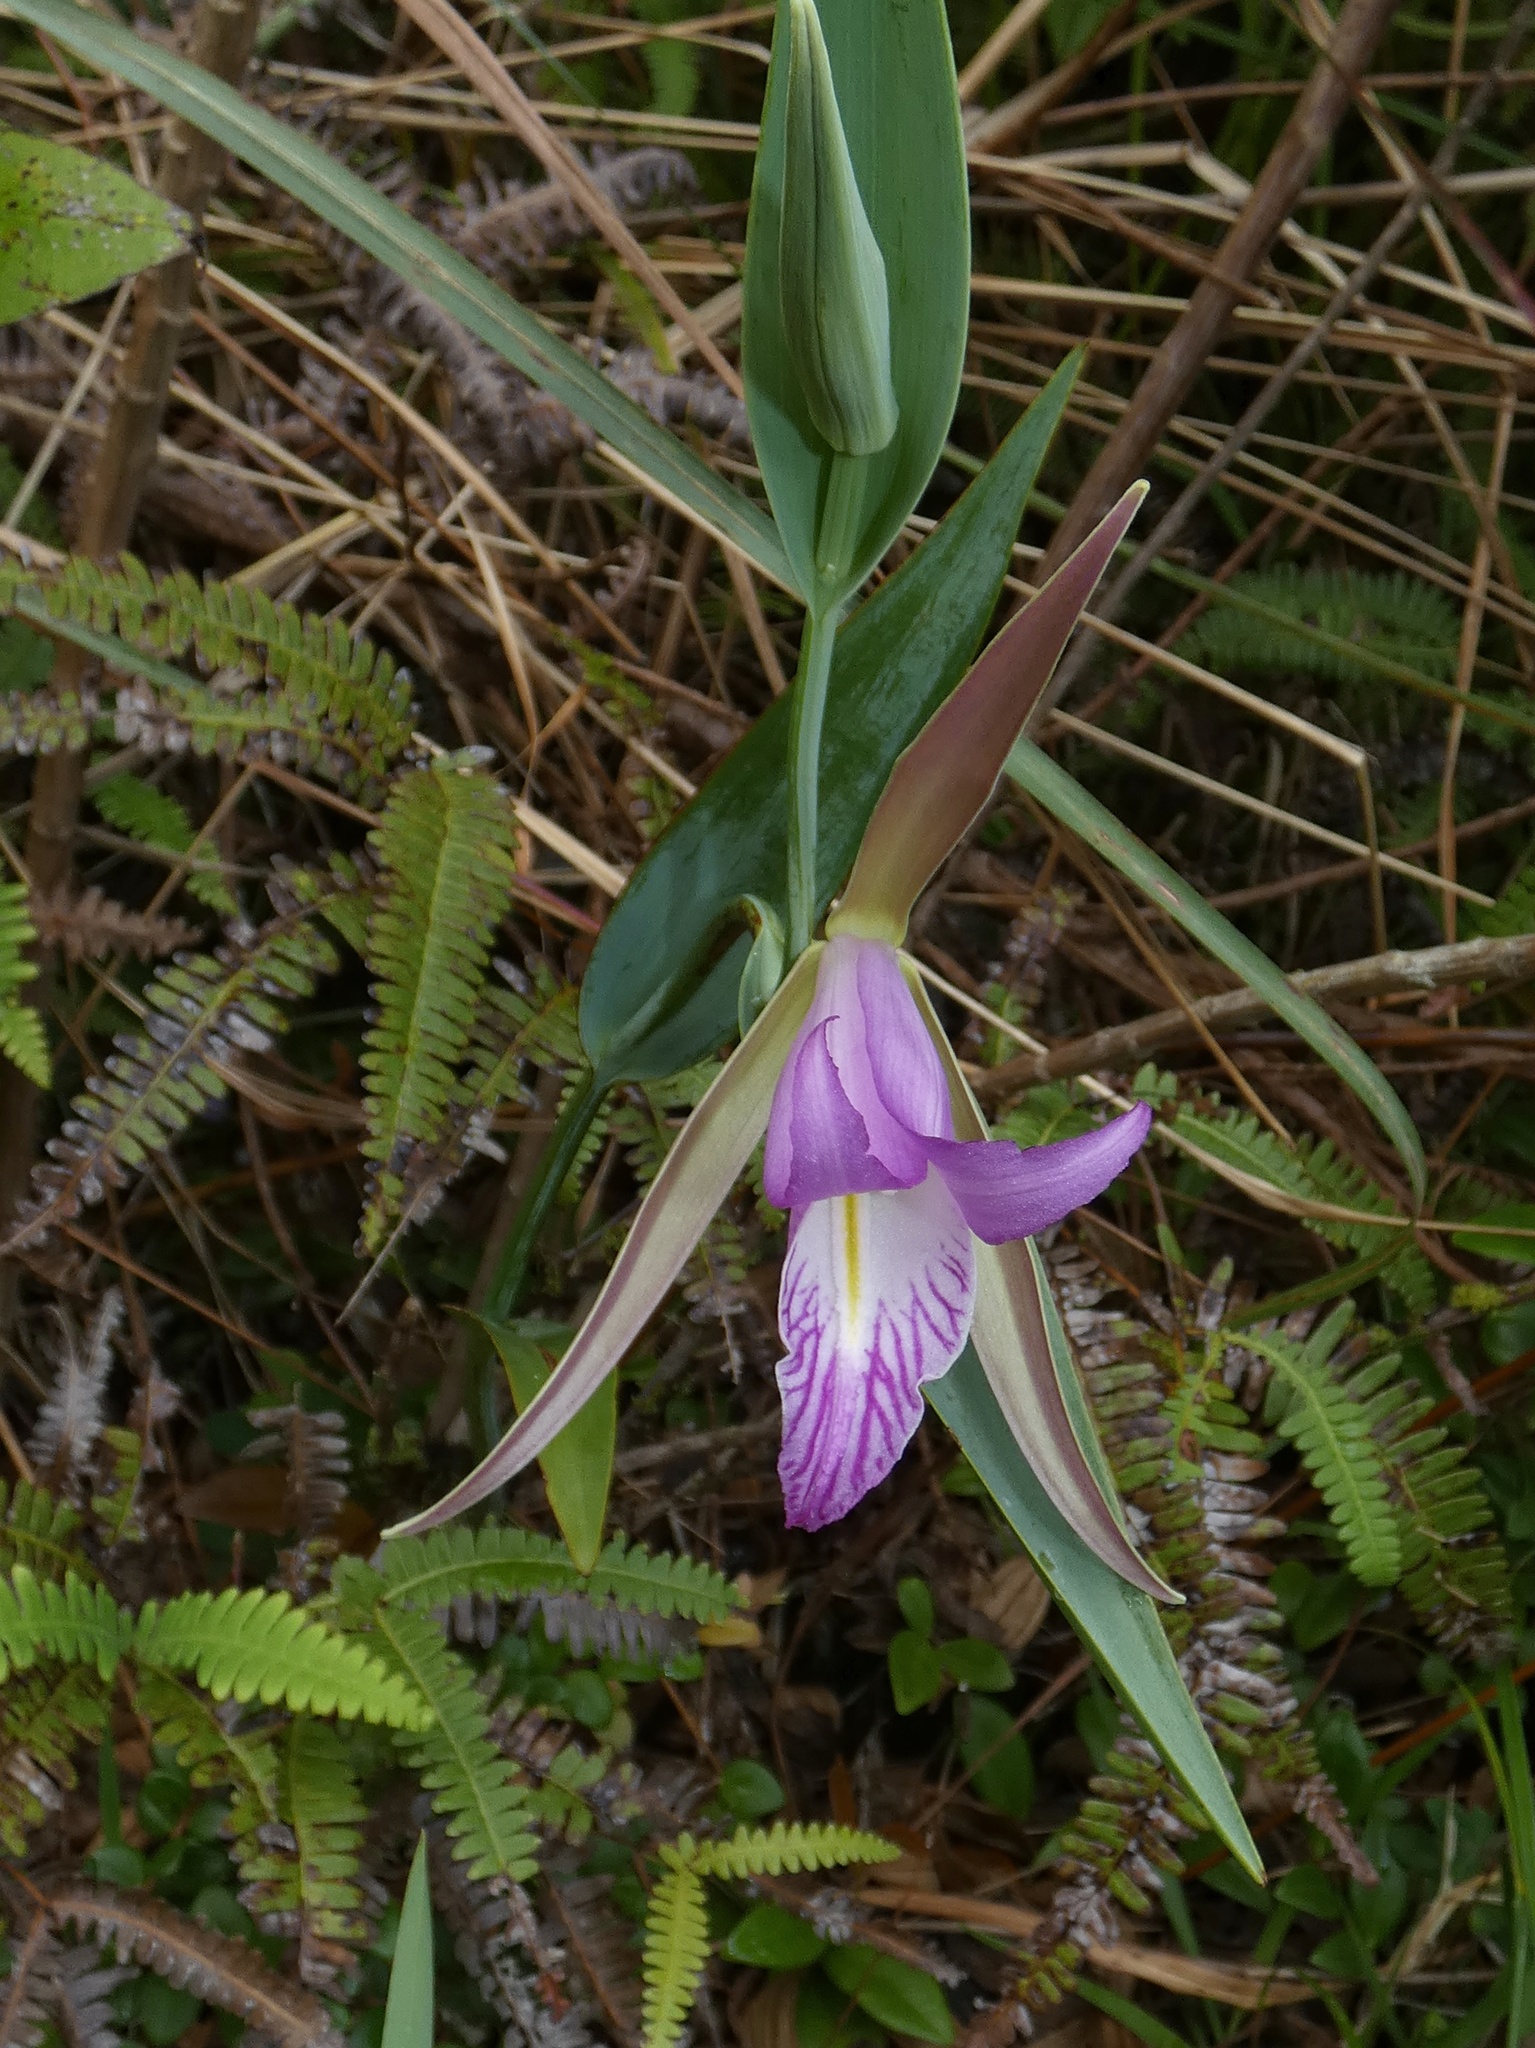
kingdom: Plantae
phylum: Tracheophyta
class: Liliopsida
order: Asparagales
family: Orchidaceae
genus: Cleistes
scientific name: Cleistes rosea
